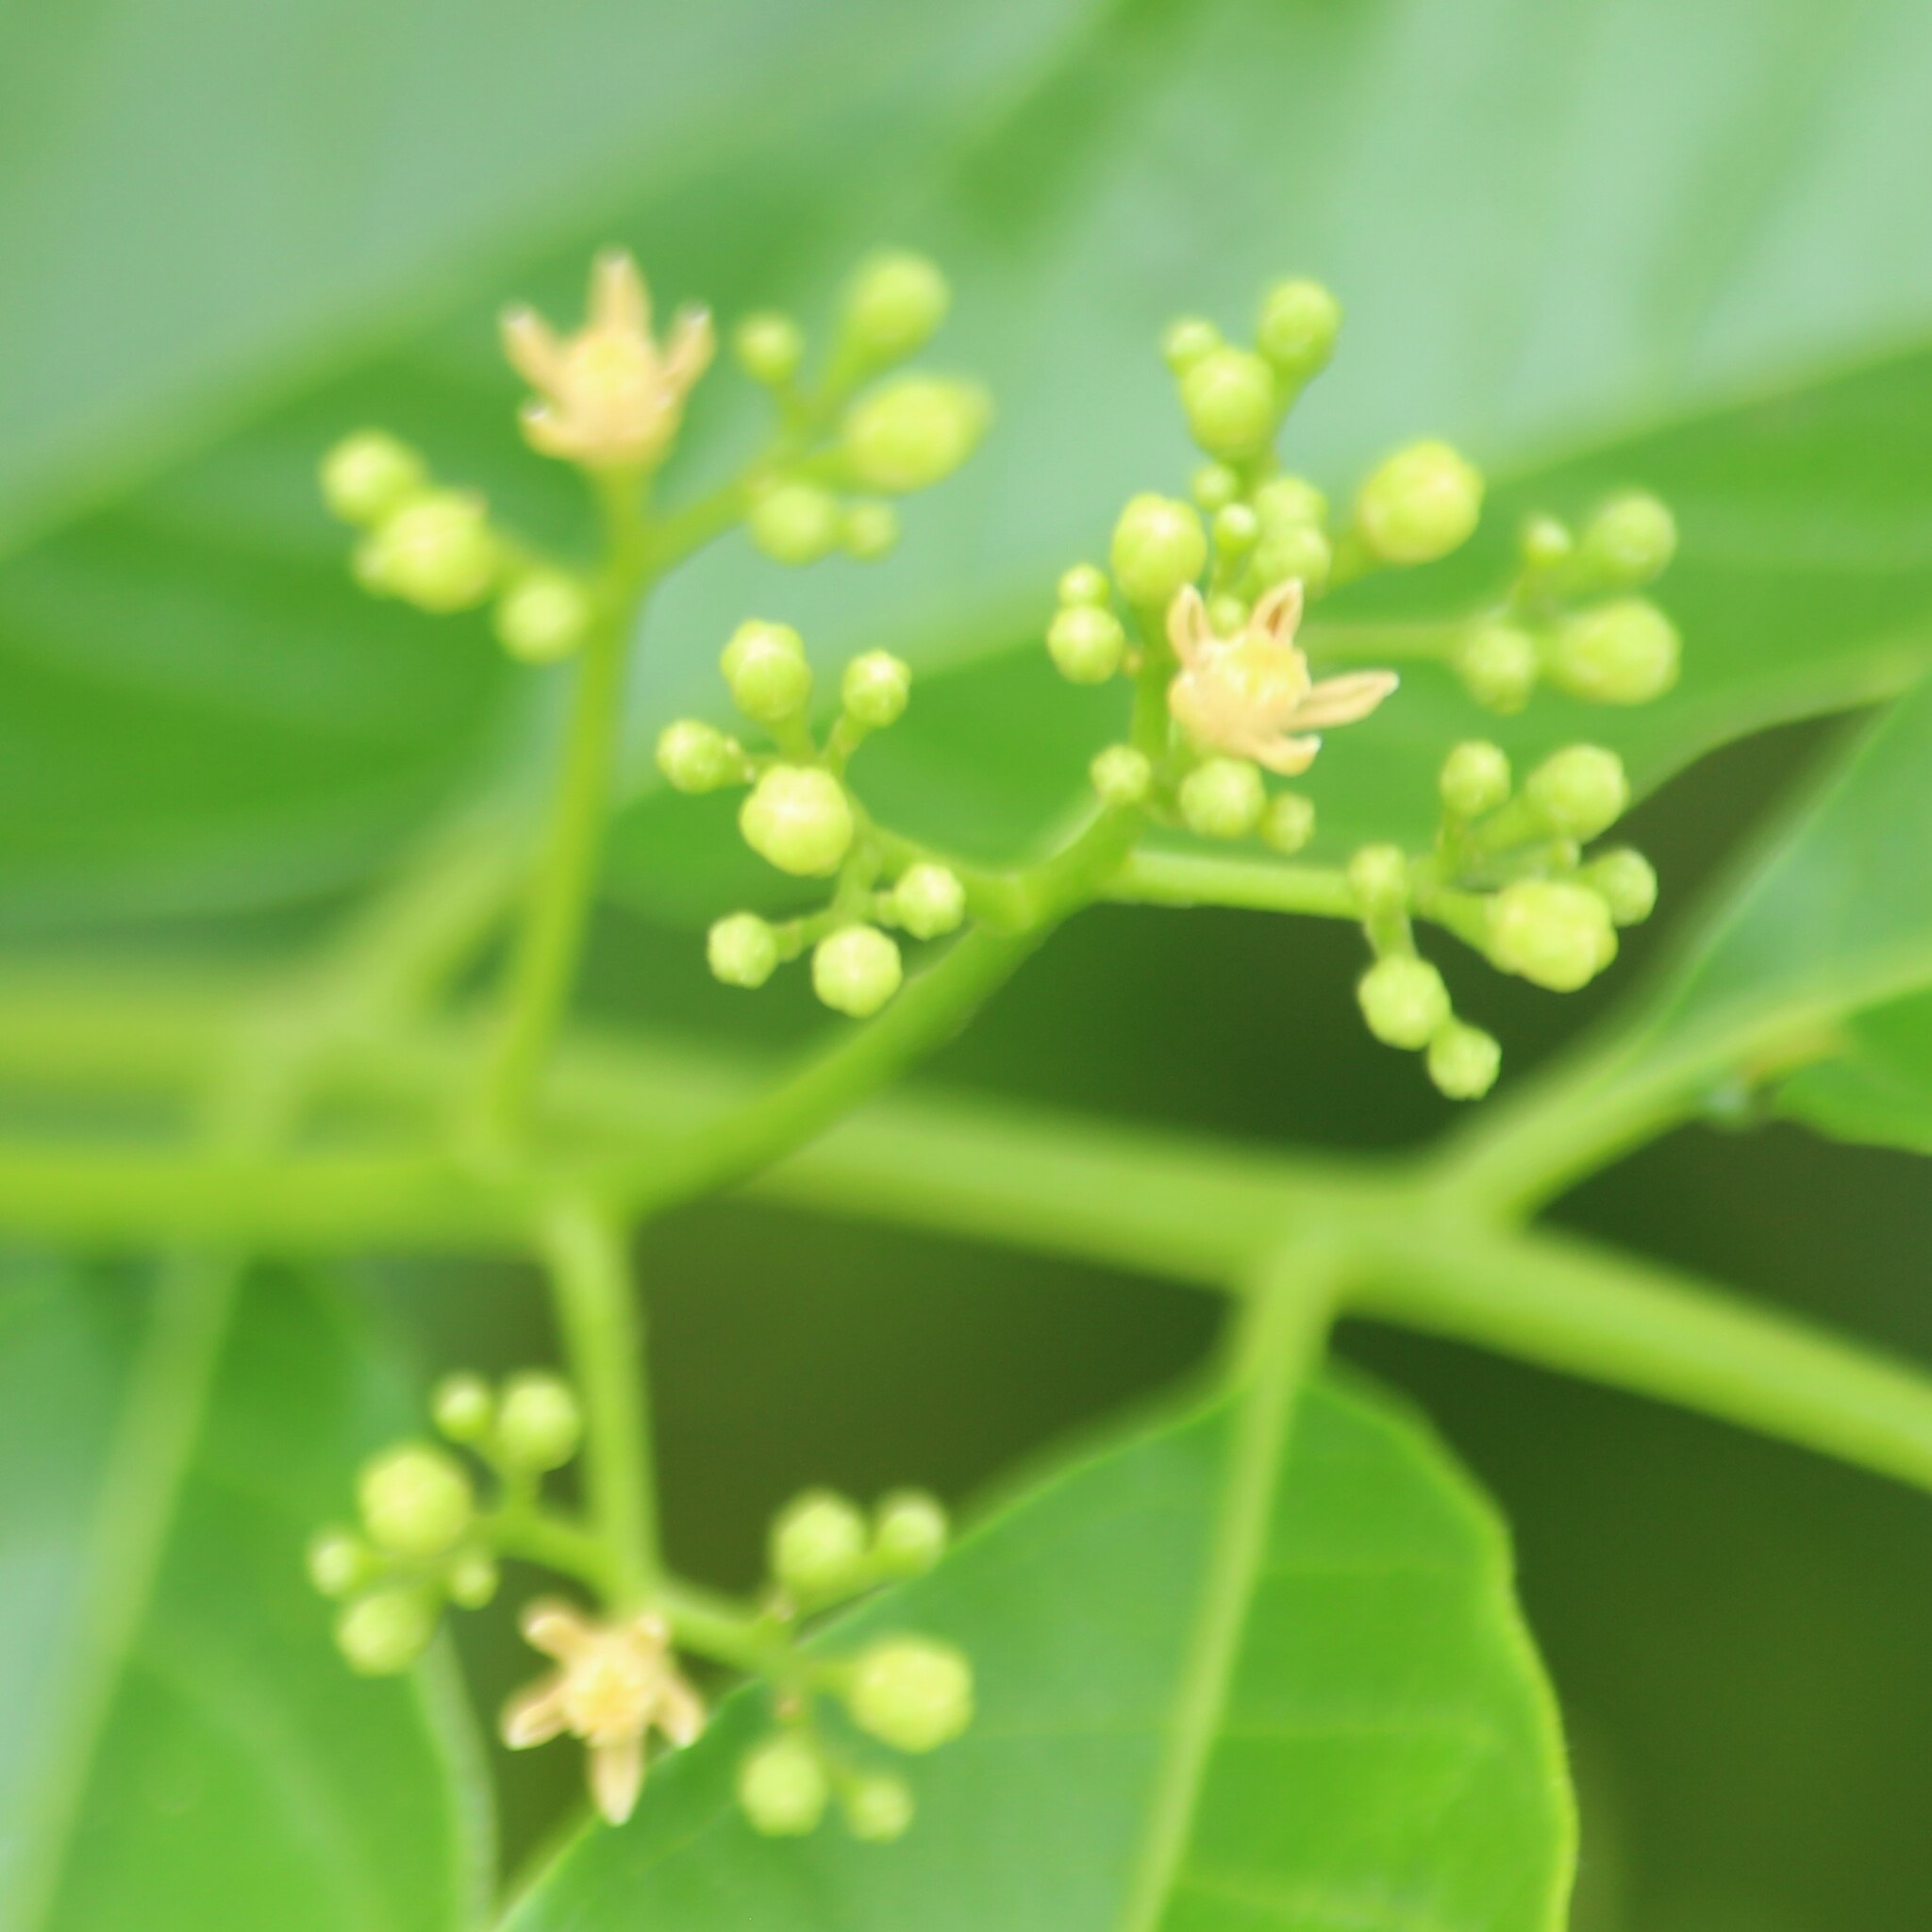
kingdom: Plantae
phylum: Tracheophyta
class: Magnoliopsida
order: Sapindales
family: Meliaceae
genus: Cipadessa
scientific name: Cipadessa baccifera
